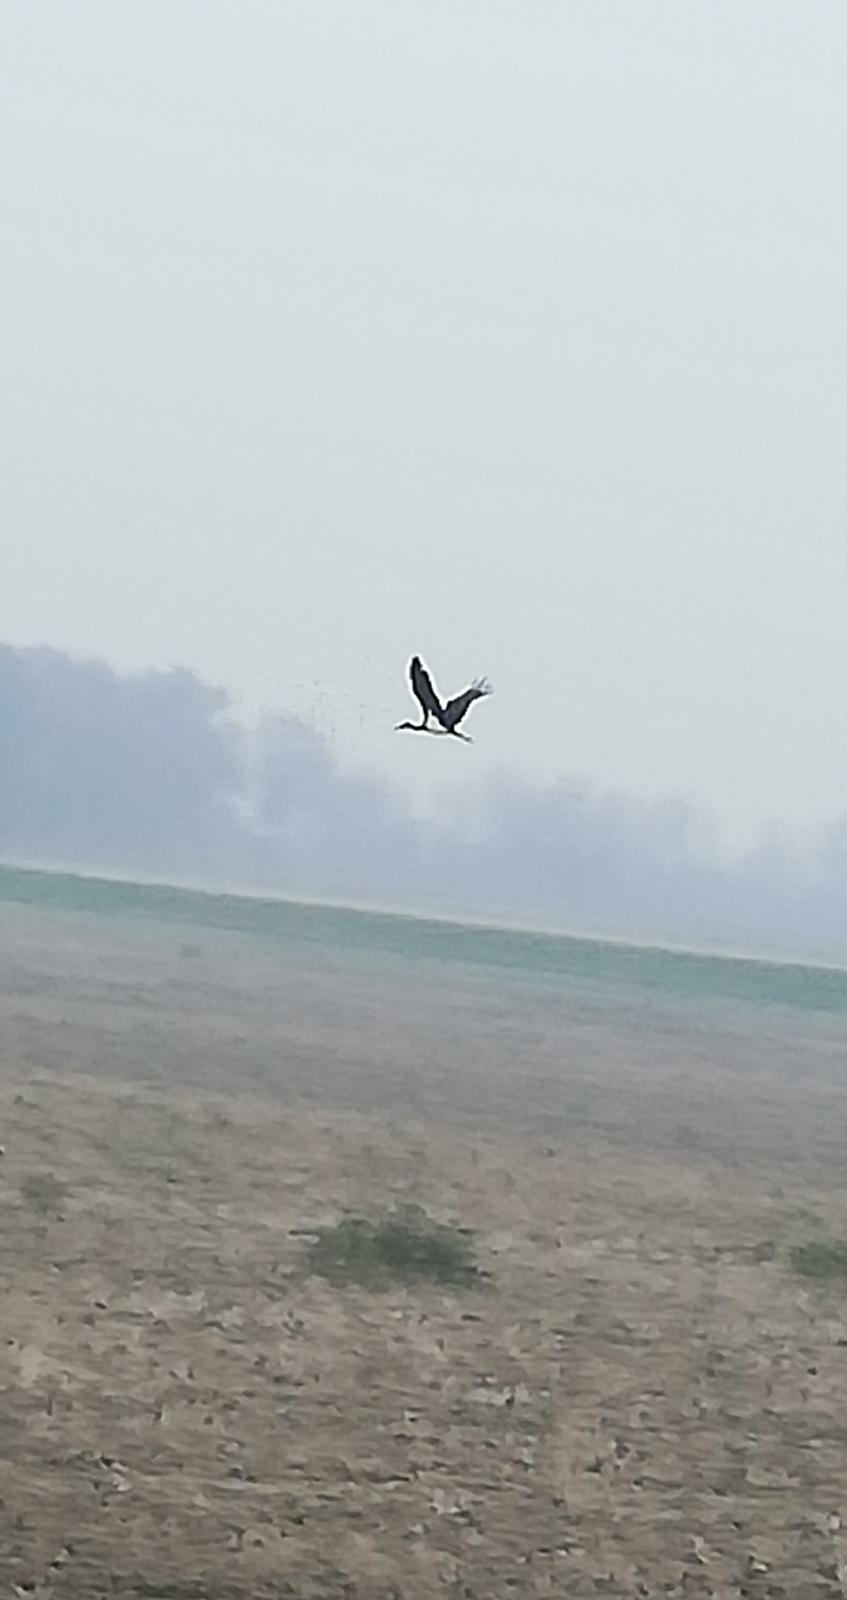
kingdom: Animalia
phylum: Chordata
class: Aves
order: Ciconiiformes
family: Ciconiidae
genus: Ciconia
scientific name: Ciconia nigra
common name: Black stork
